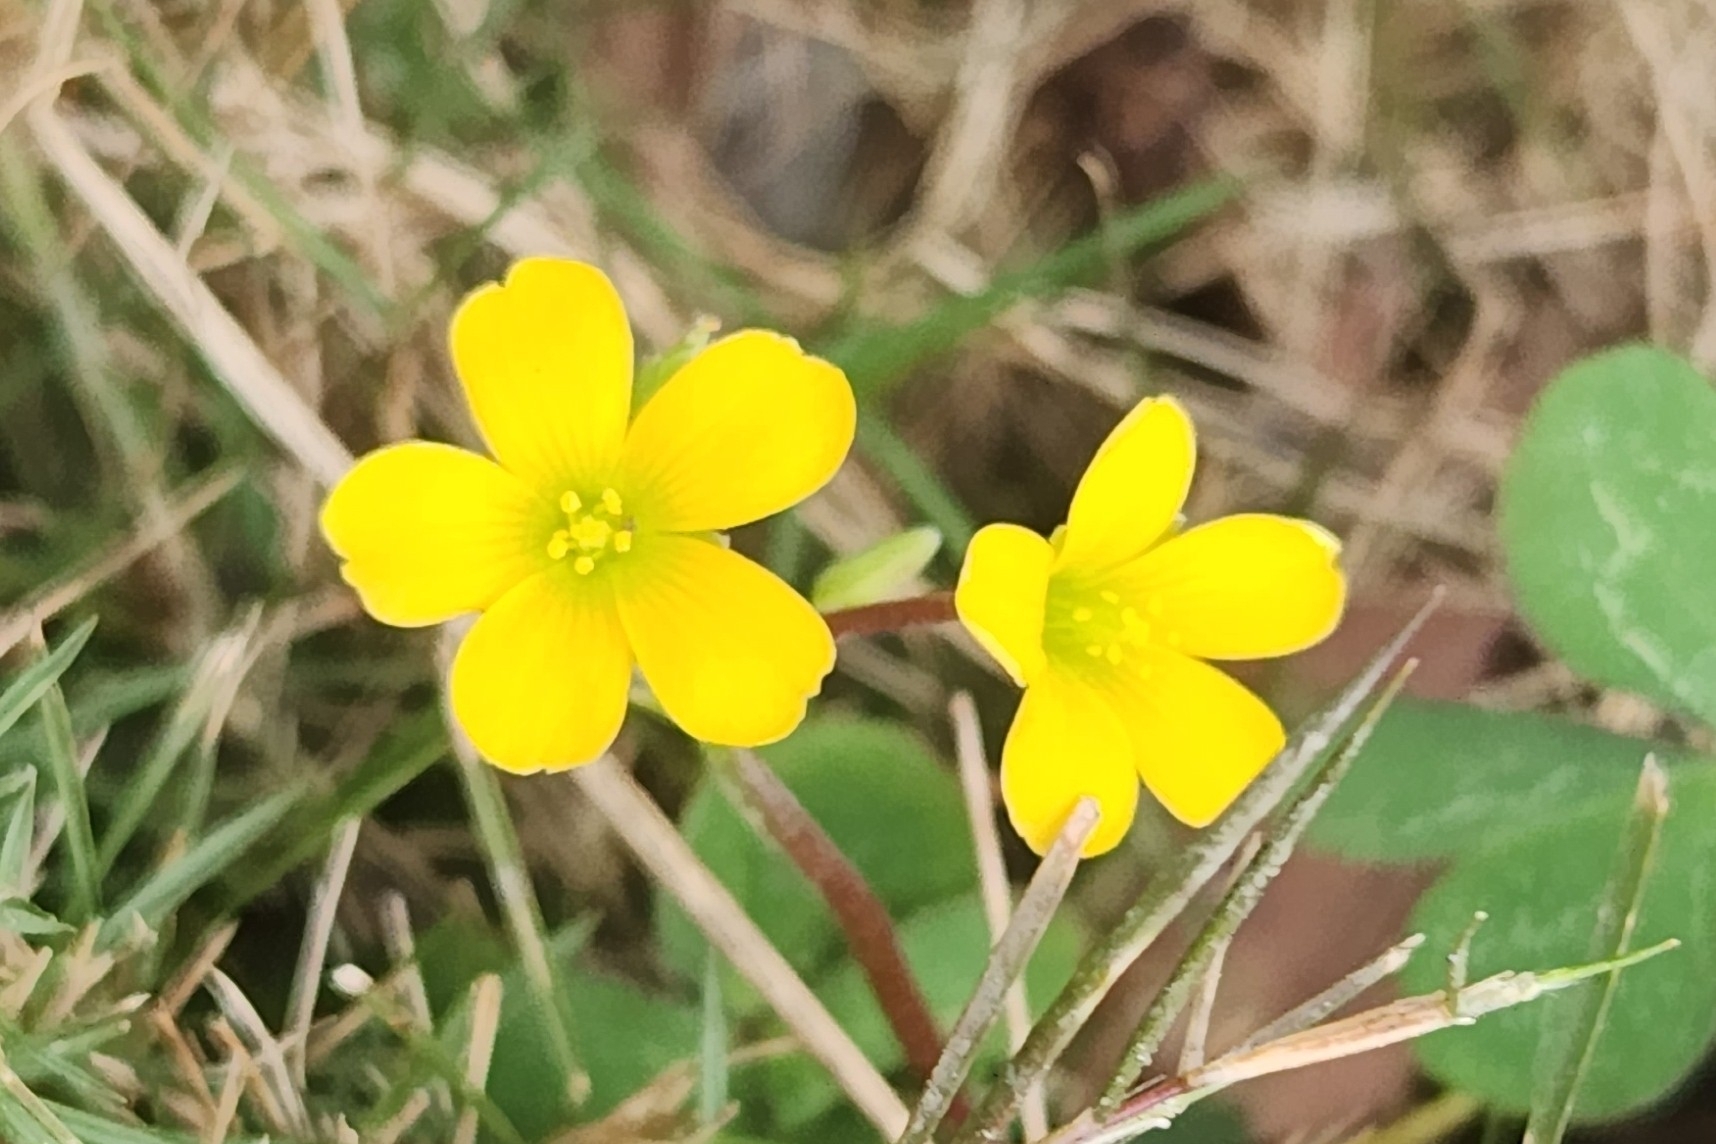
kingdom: Plantae
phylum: Tracheophyta
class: Magnoliopsida
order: Oxalidales
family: Oxalidaceae
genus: Oxalis
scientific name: Oxalis corniculata
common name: Procumbent yellow-sorrel
